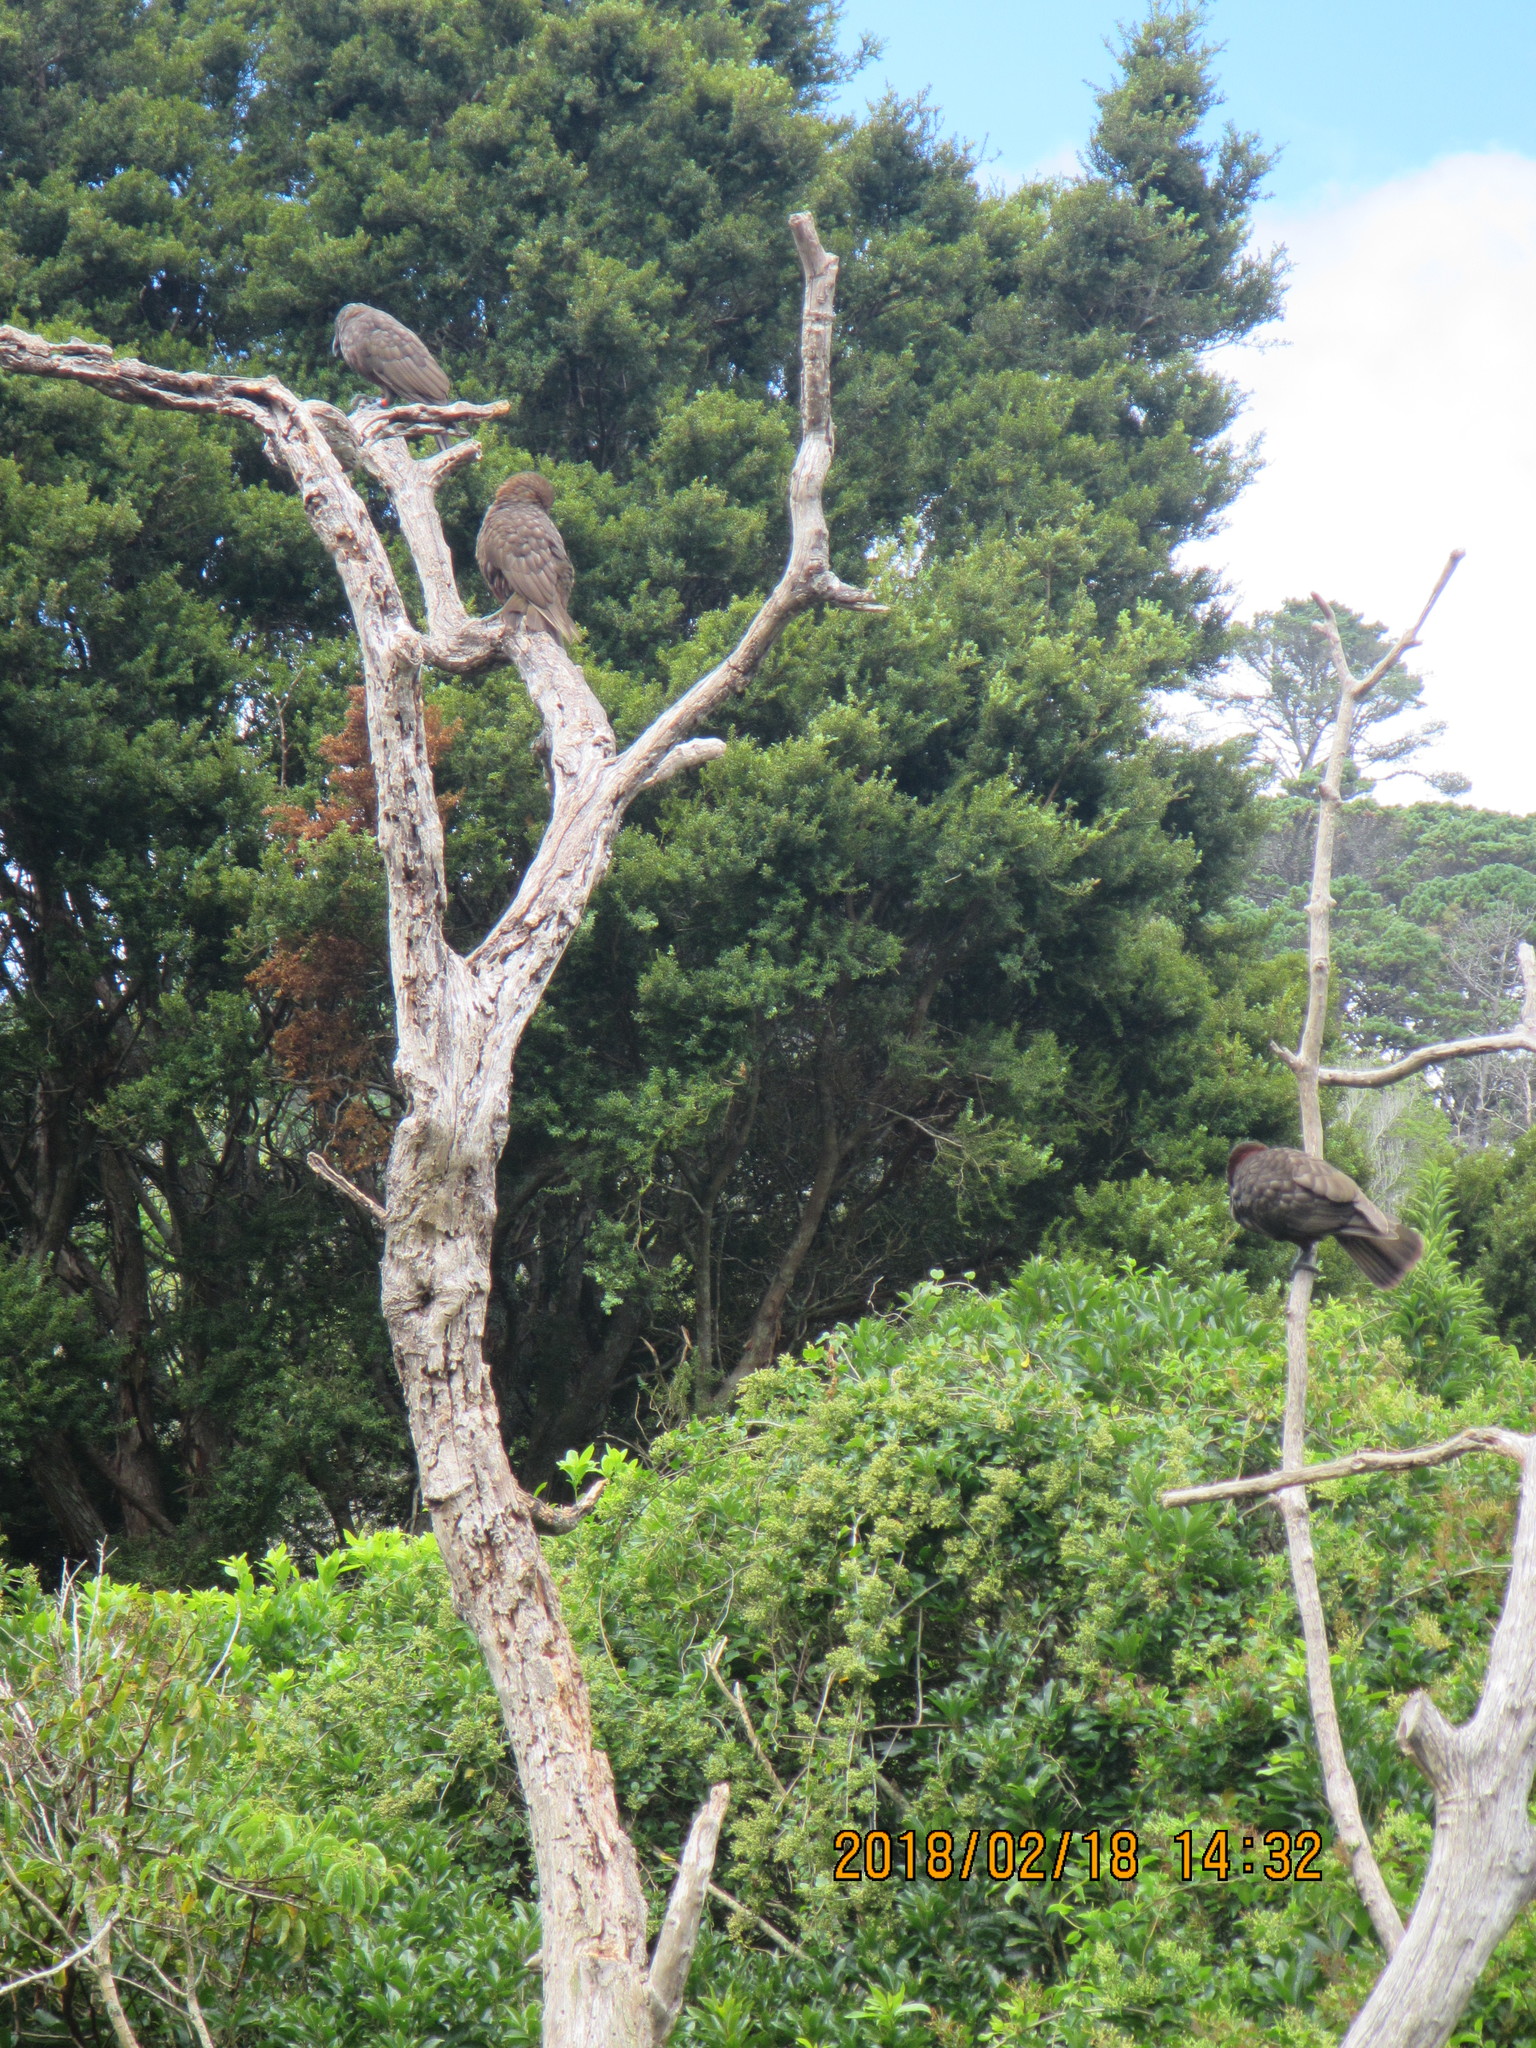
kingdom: Animalia
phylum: Chordata
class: Aves
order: Psittaciformes
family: Psittacidae
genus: Nestor
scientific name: Nestor meridionalis
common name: New zealand kaka
